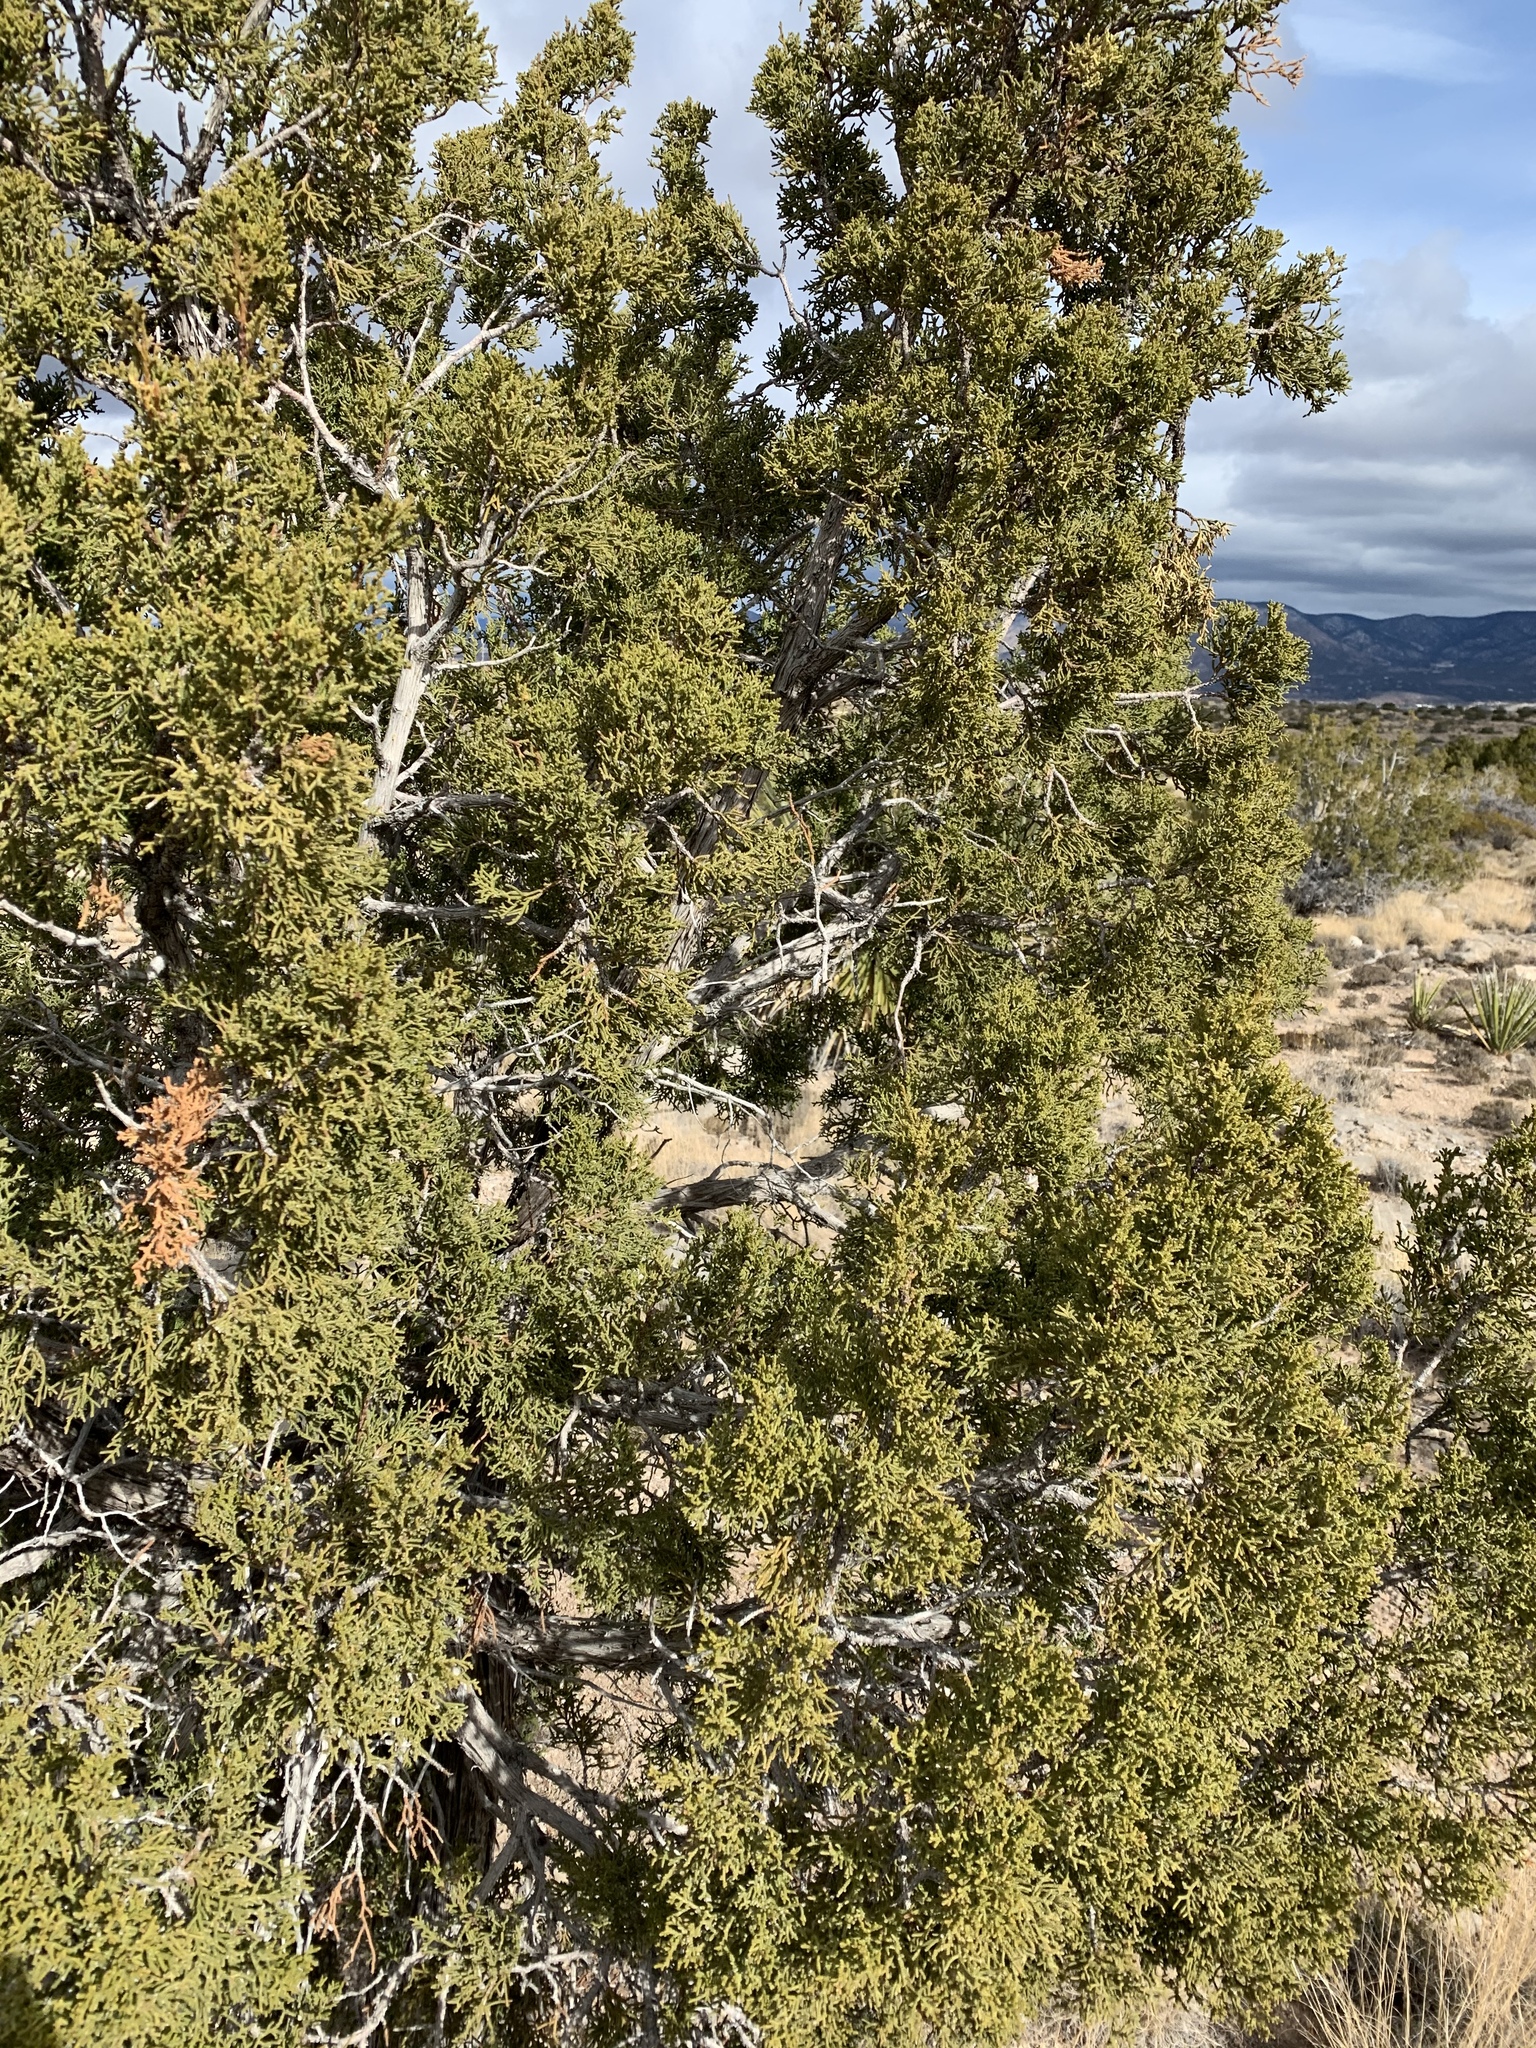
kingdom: Plantae
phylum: Tracheophyta
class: Pinopsida
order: Pinales
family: Cupressaceae
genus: Juniperus
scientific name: Juniperus monosperma
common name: One-seed juniper
